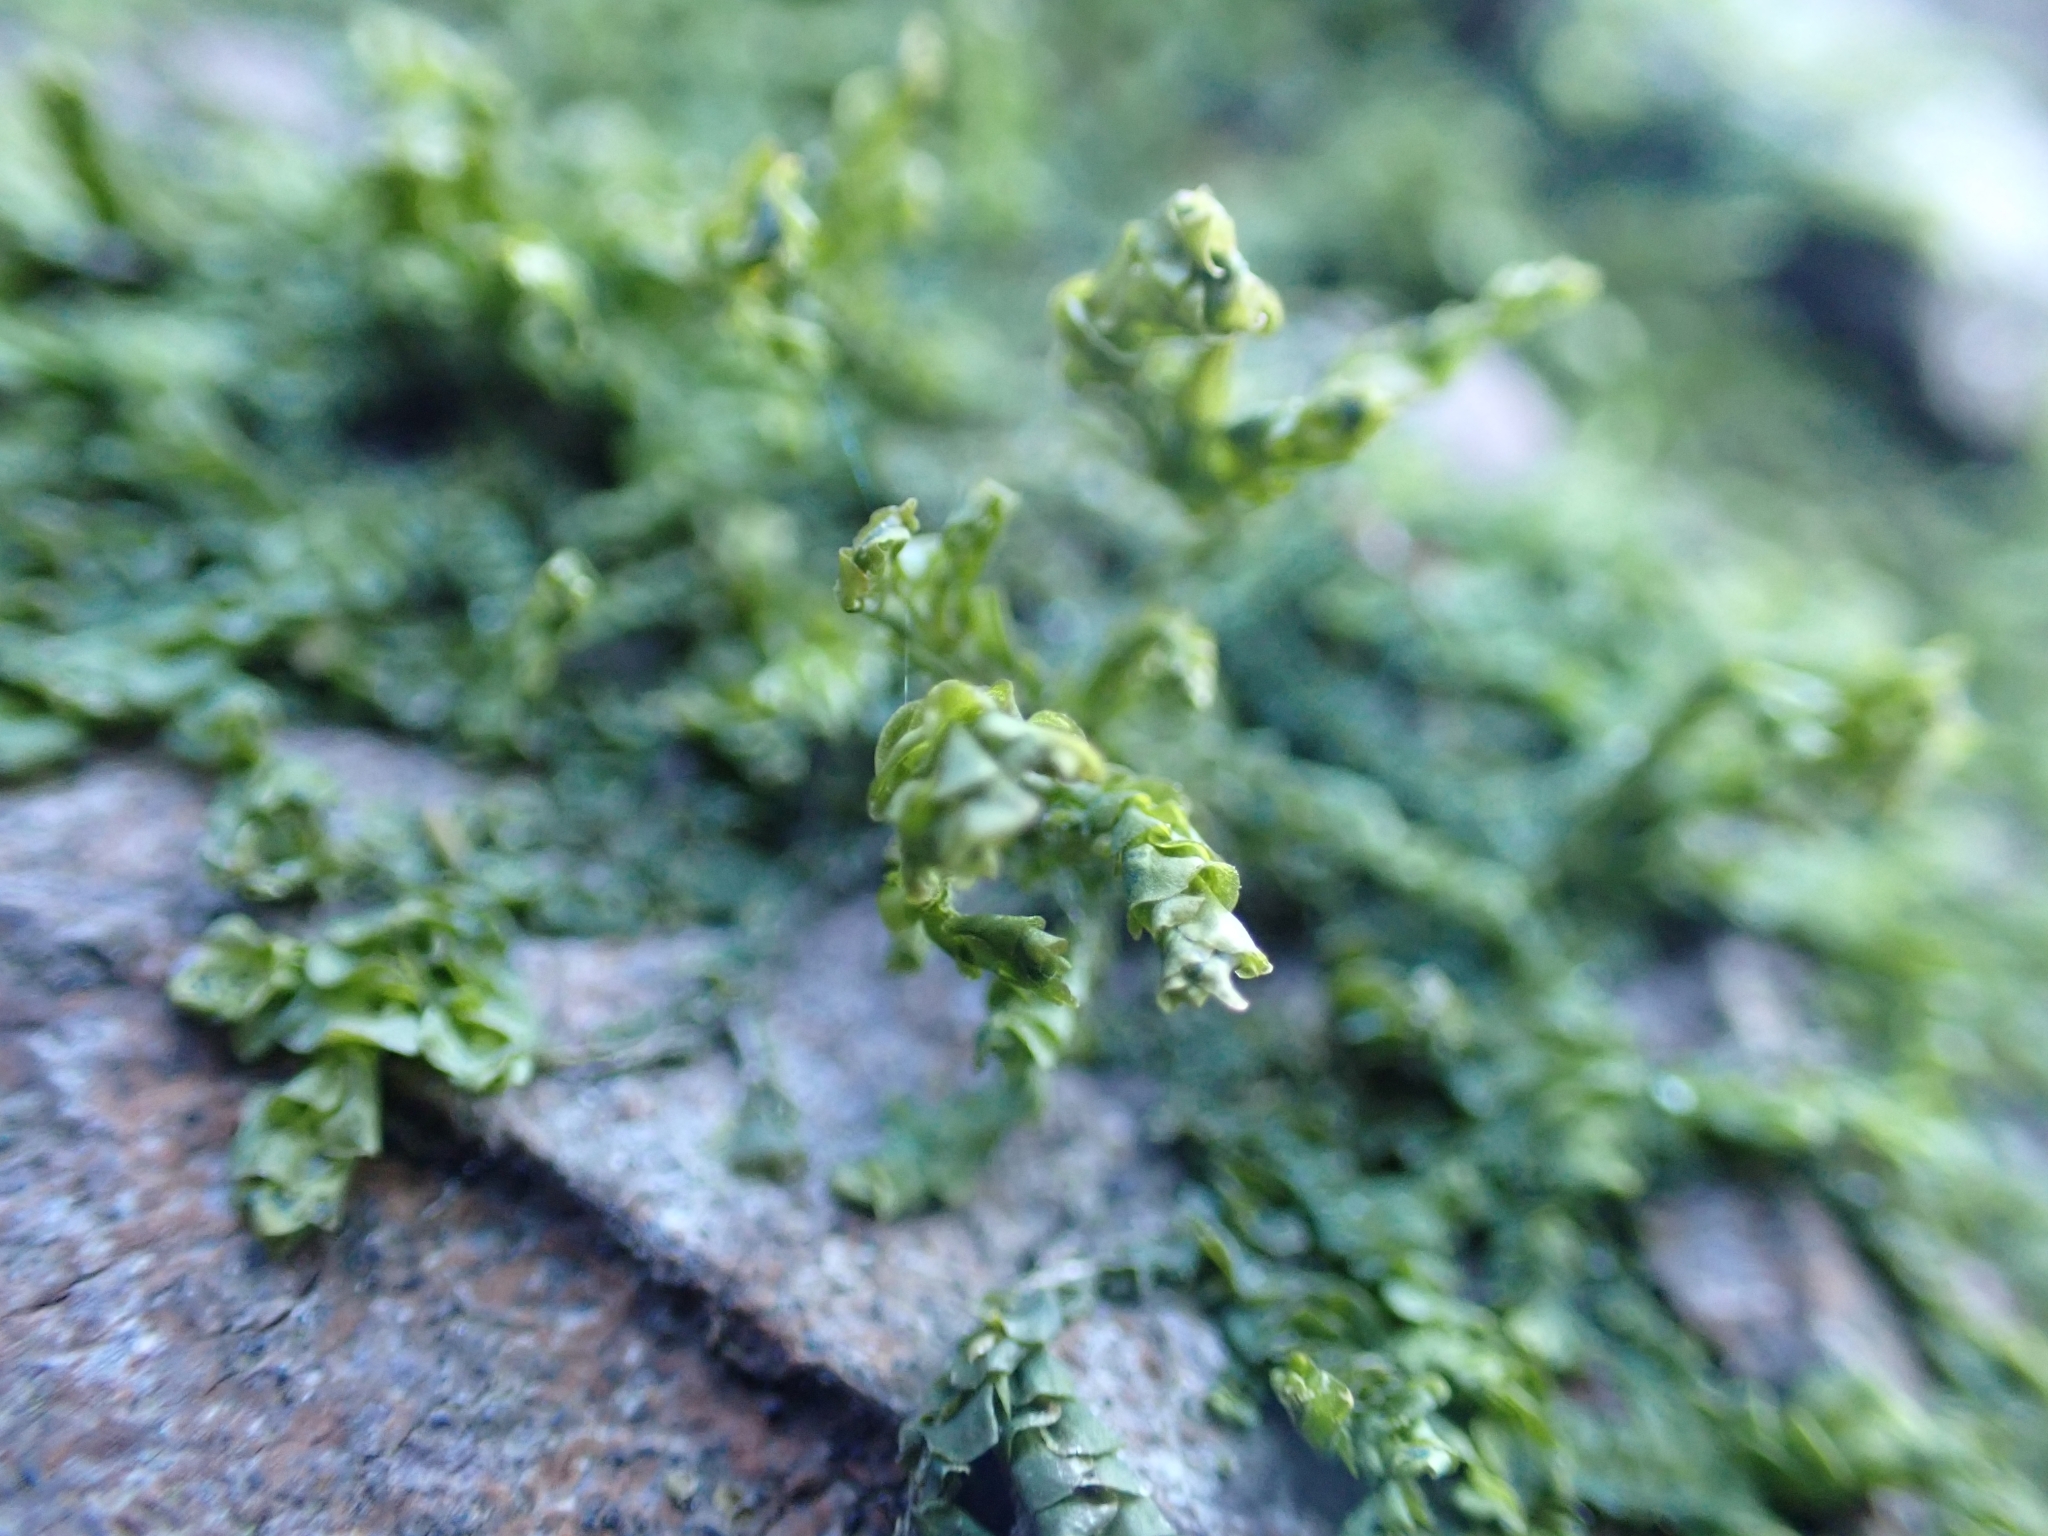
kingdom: Plantae
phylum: Marchantiophyta
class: Jungermanniopsida
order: Porellales
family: Porellaceae
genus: Porella
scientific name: Porella platyphylla
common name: Wall scalewort
